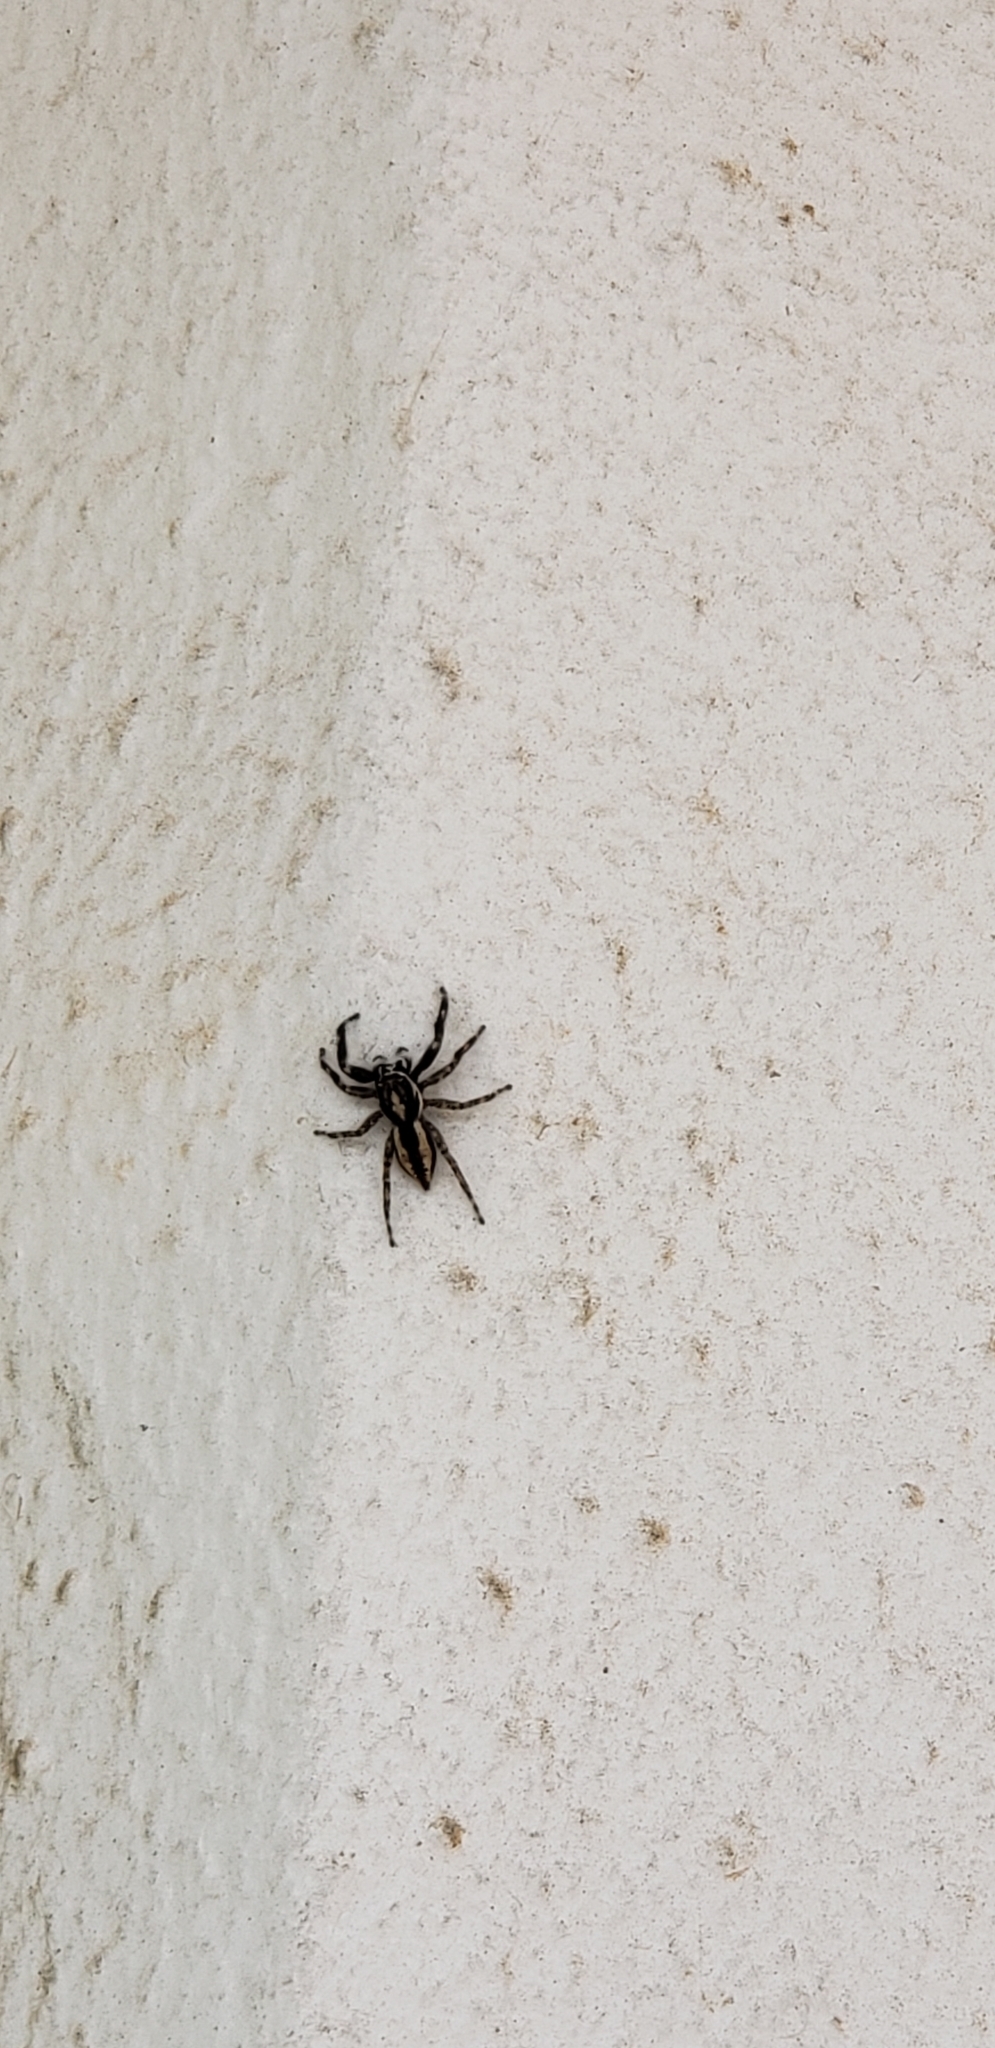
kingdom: Animalia
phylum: Arthropoda
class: Arachnida
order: Araneae
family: Salticidae
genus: Menemerus
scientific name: Menemerus bivittatus
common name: Gray wall jumper
